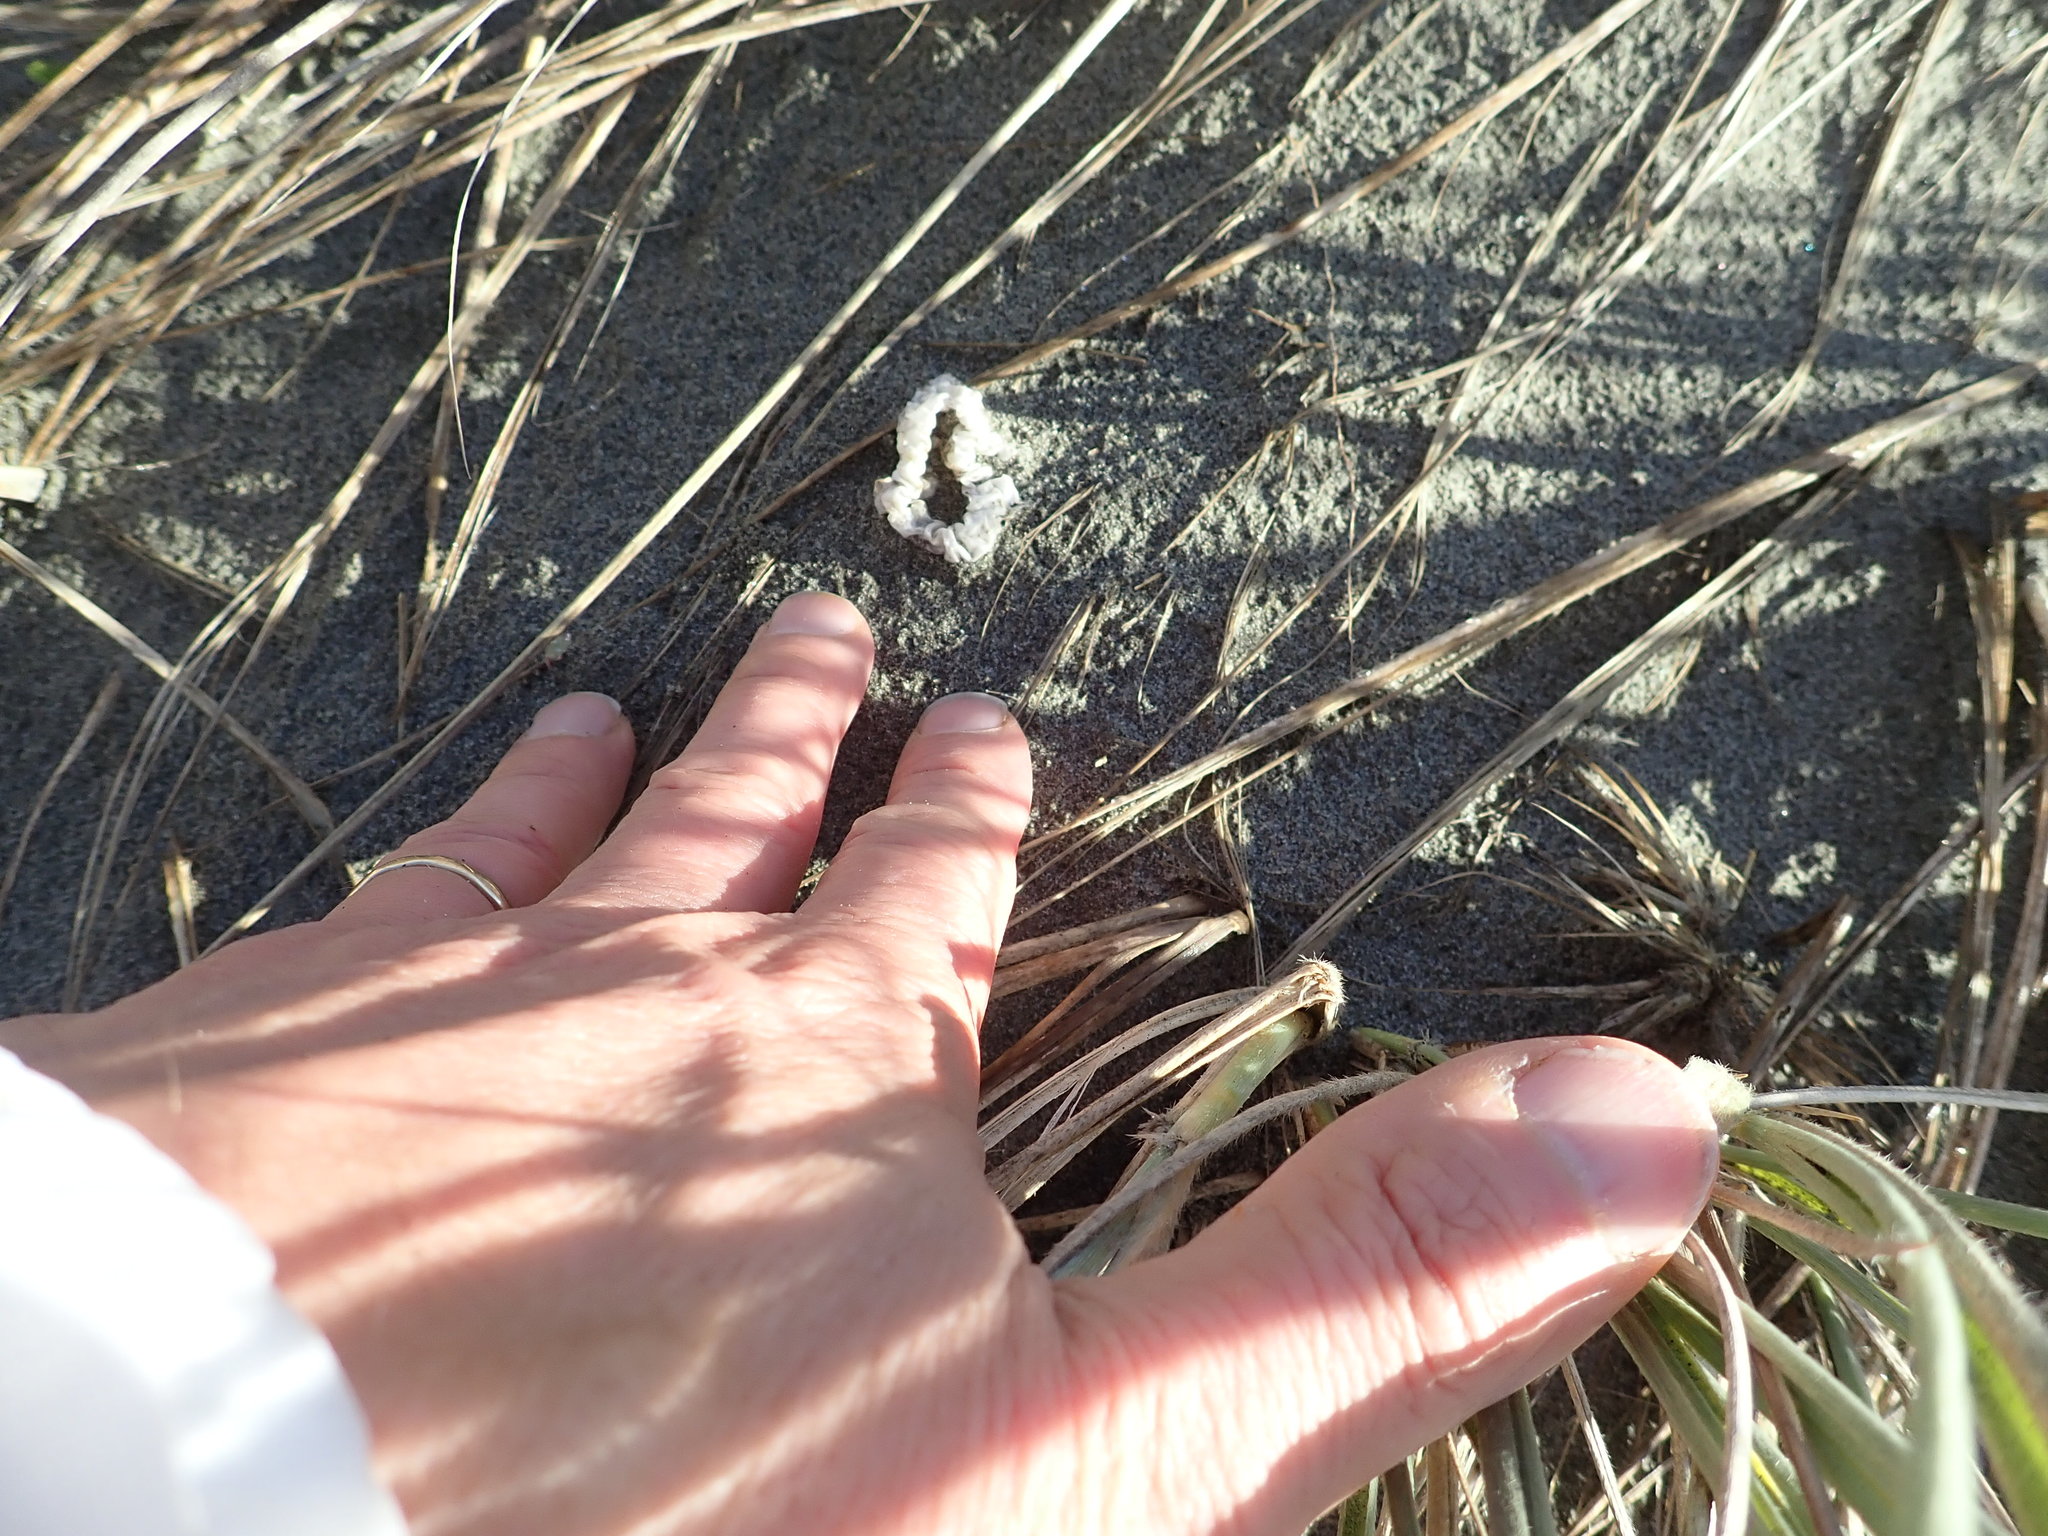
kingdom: Fungi
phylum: Basidiomycota
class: Agaricomycetes
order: Phallales
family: Phallaceae
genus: Ileodictyon
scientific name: Ileodictyon cibarium
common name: Basket fungus
